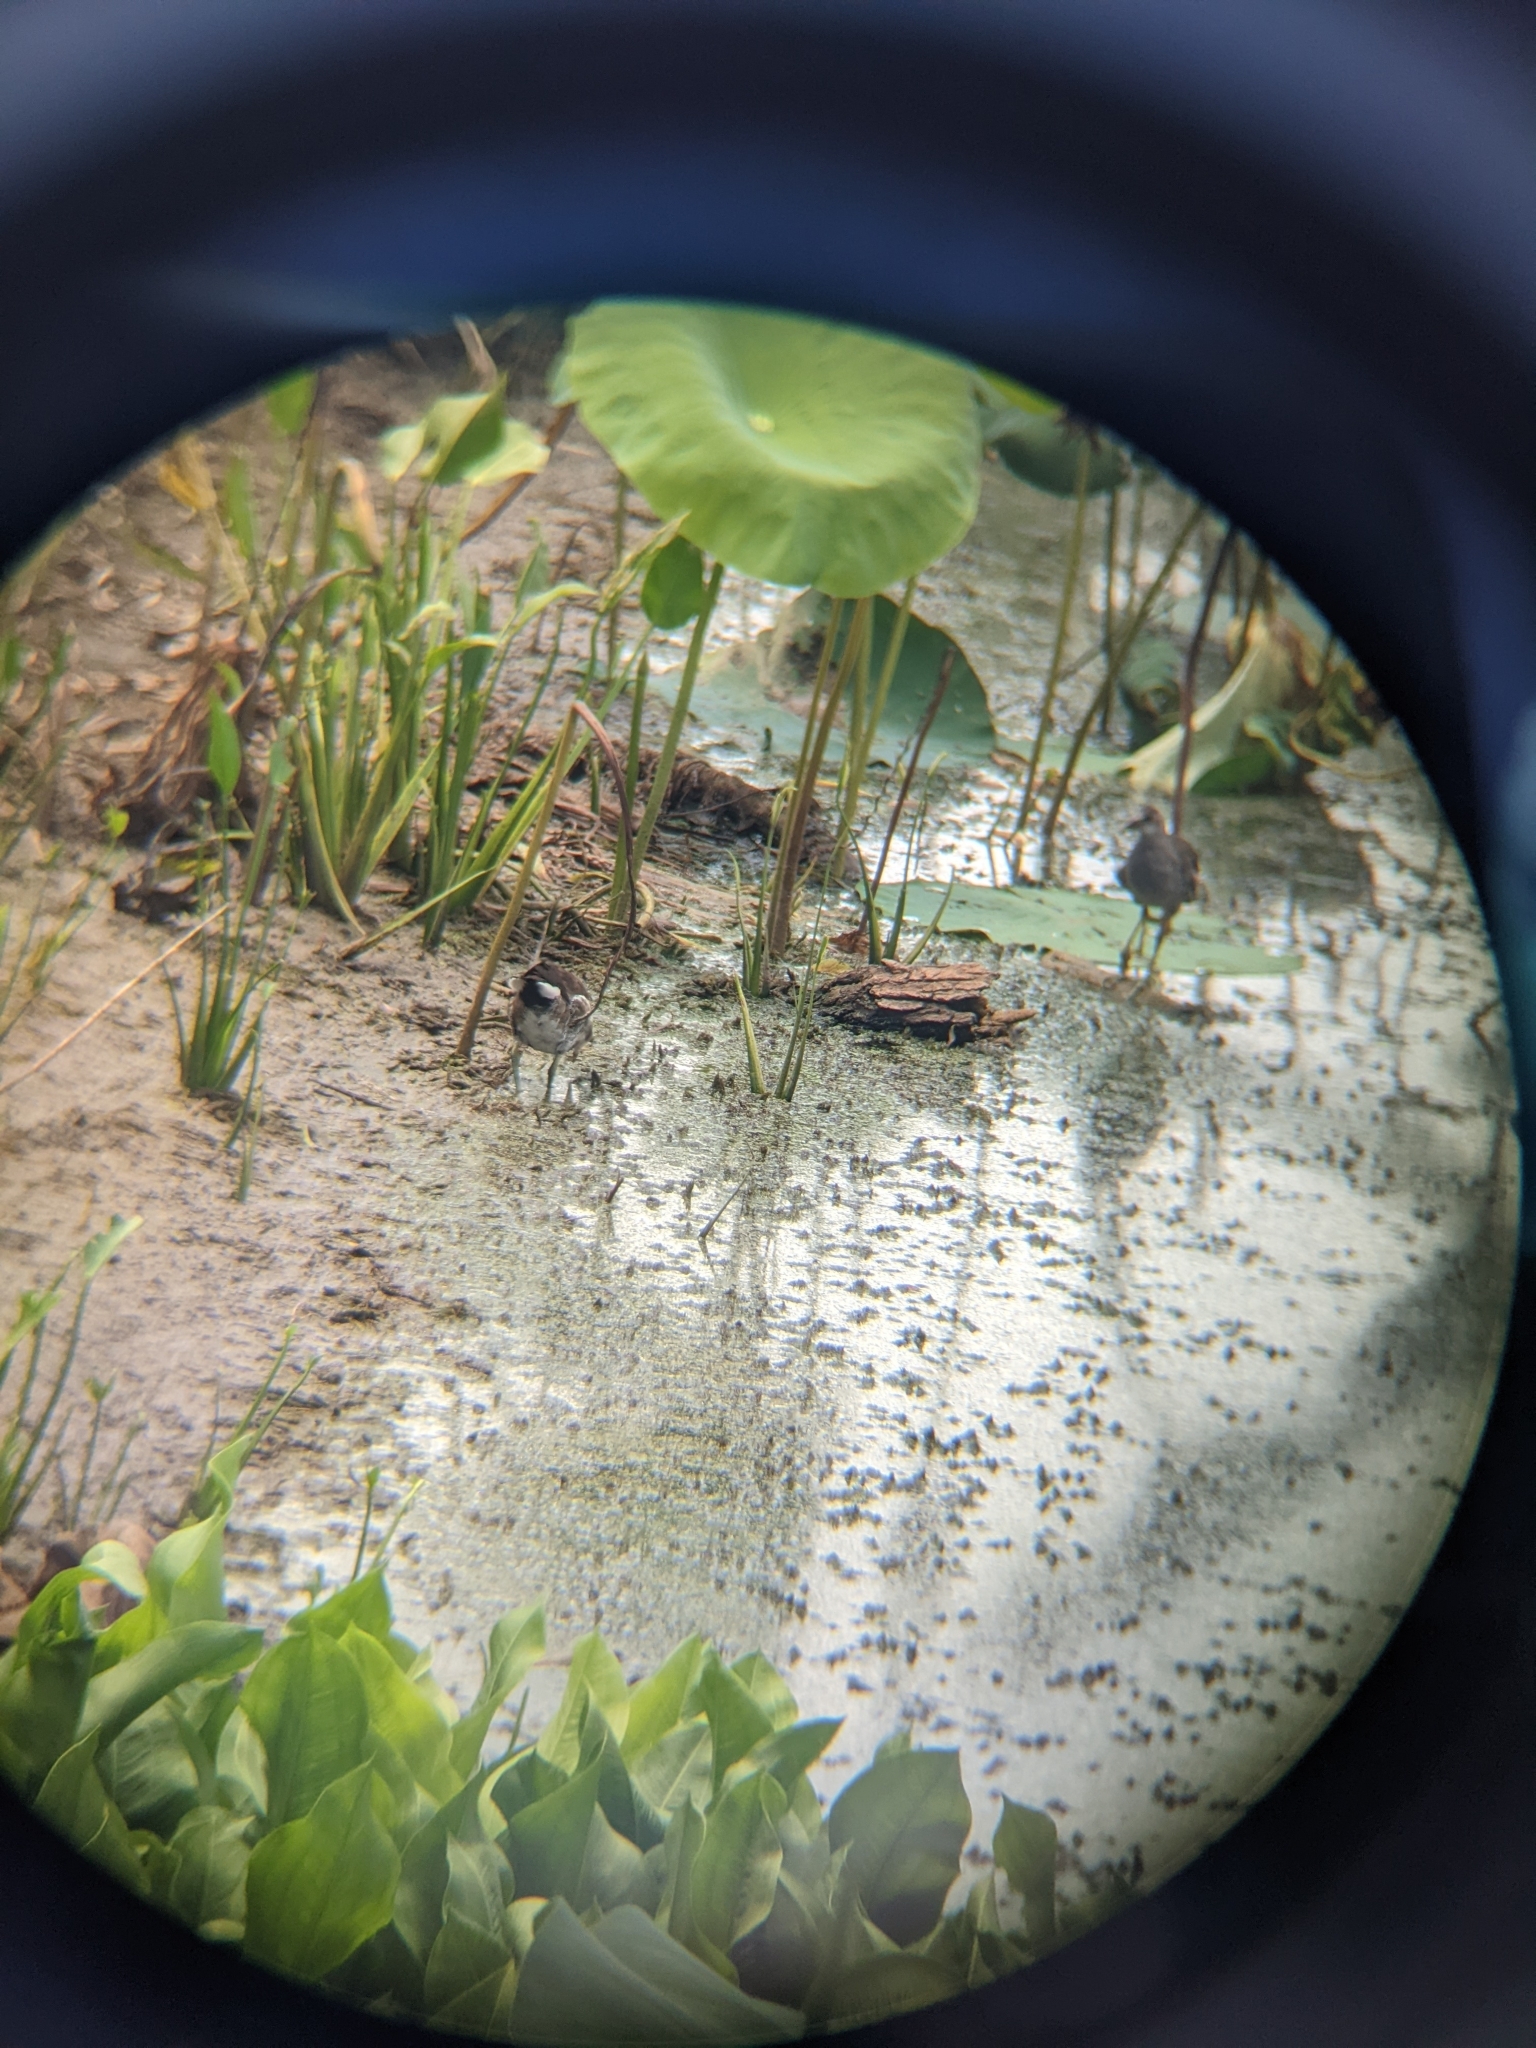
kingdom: Animalia
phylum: Chordata
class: Aves
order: Gruiformes
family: Rallidae
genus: Gallinula
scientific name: Gallinula chloropus
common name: Common moorhen
